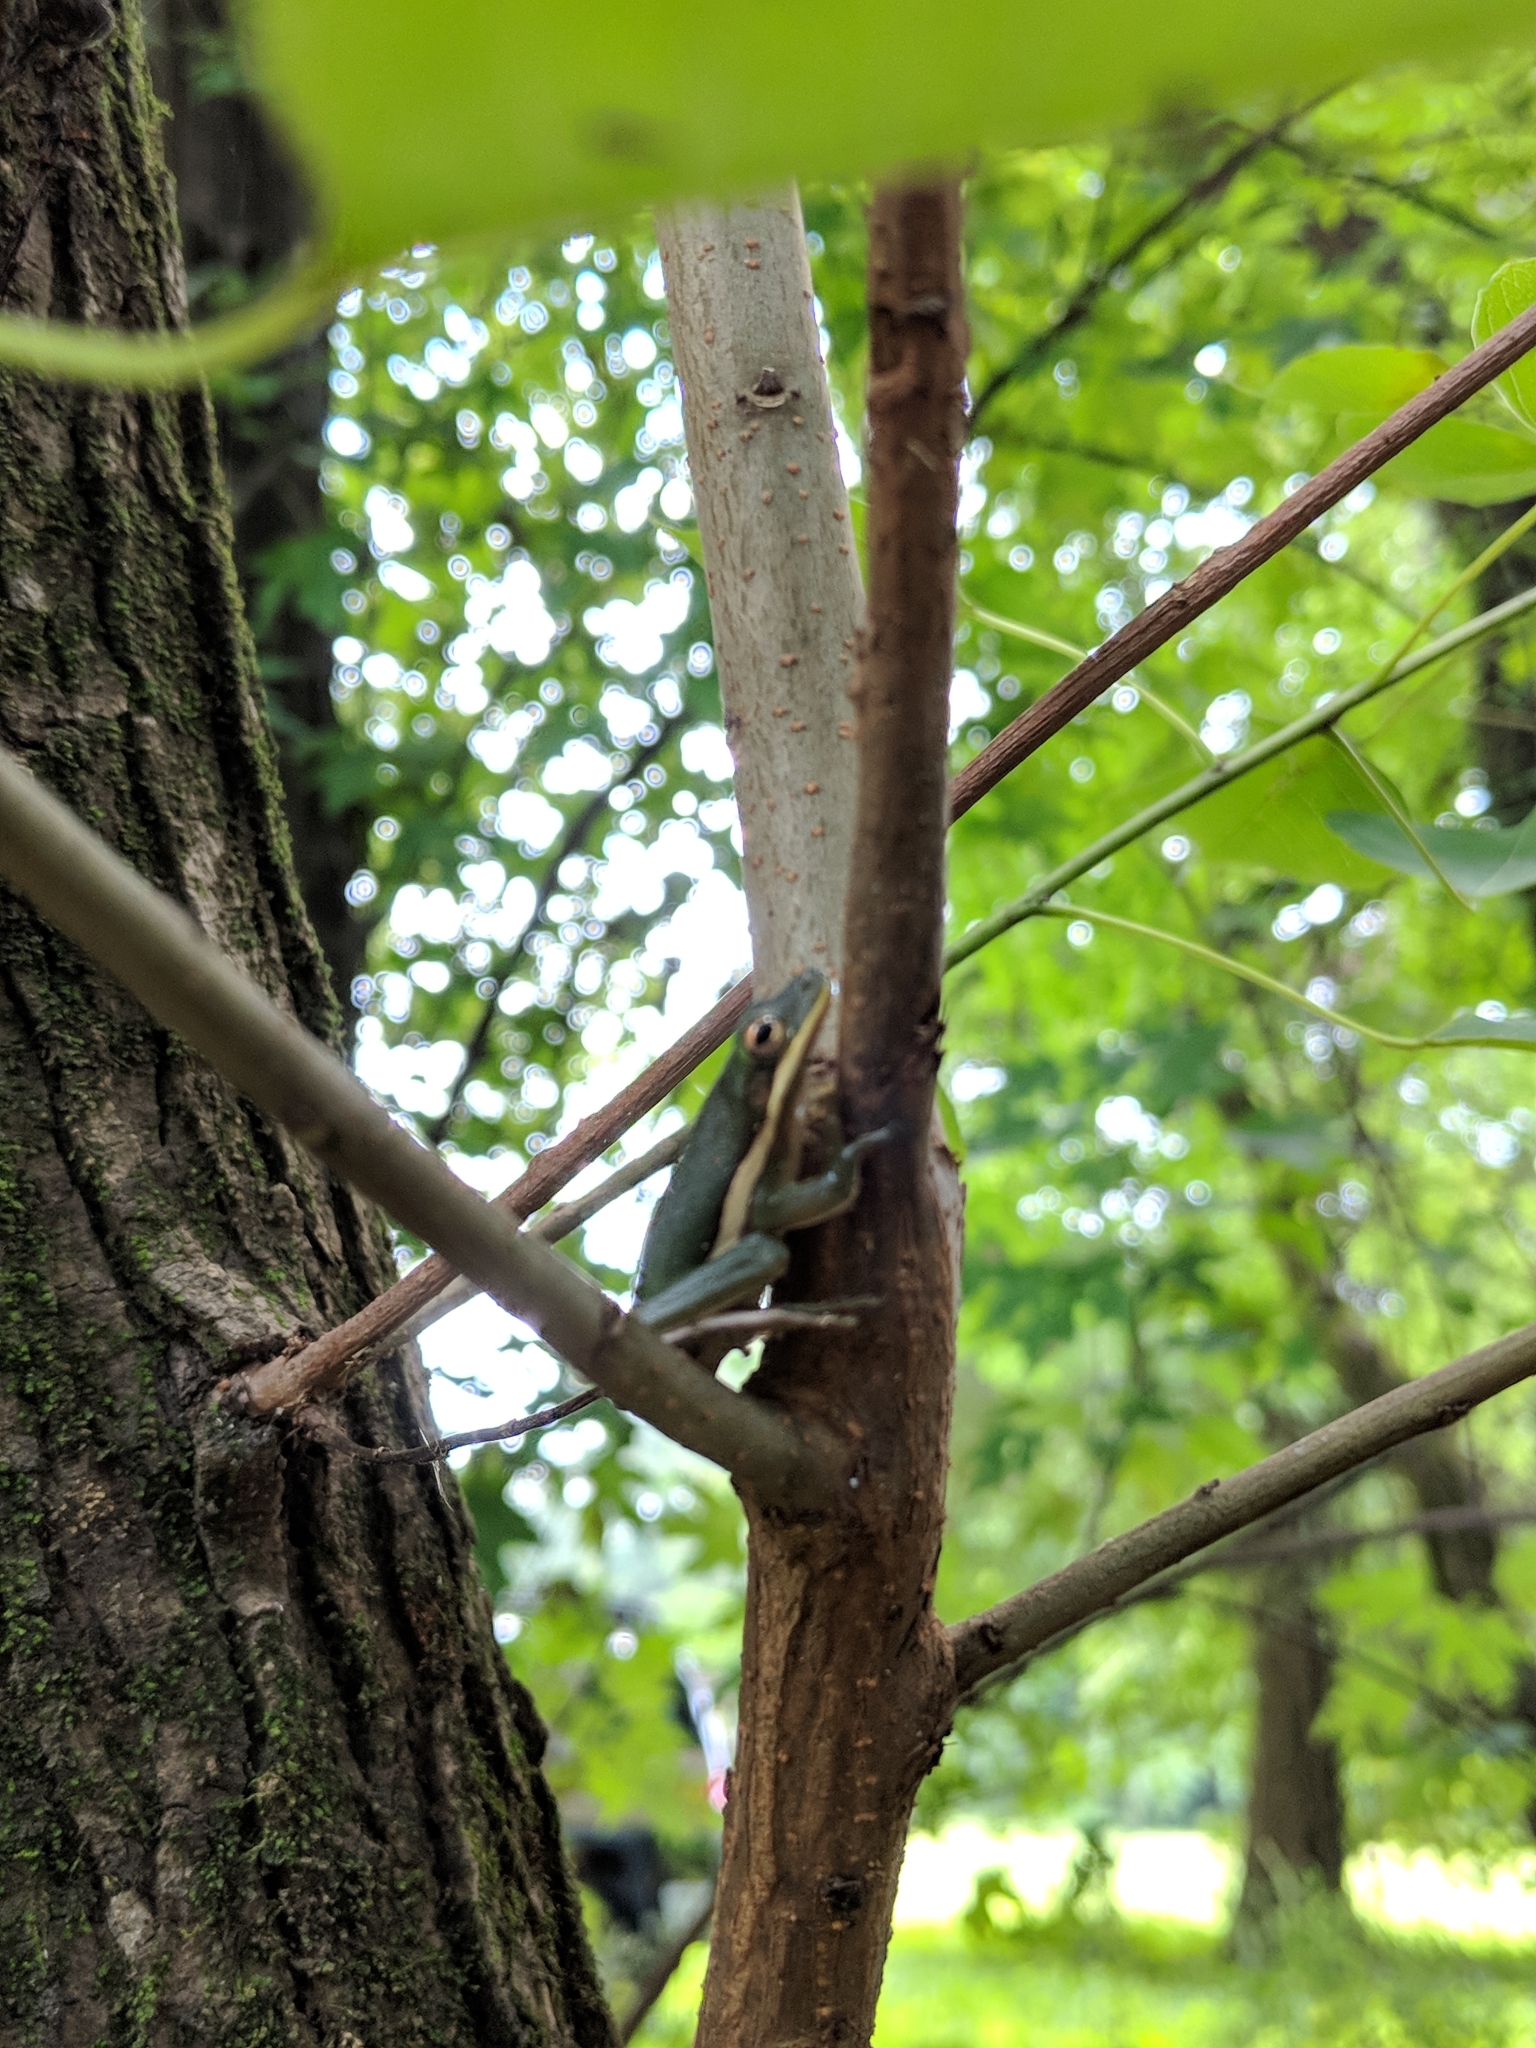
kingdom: Animalia
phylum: Chordata
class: Amphibia
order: Anura
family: Hylidae
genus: Dryophytes
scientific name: Dryophytes cinereus
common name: Green treefrog
